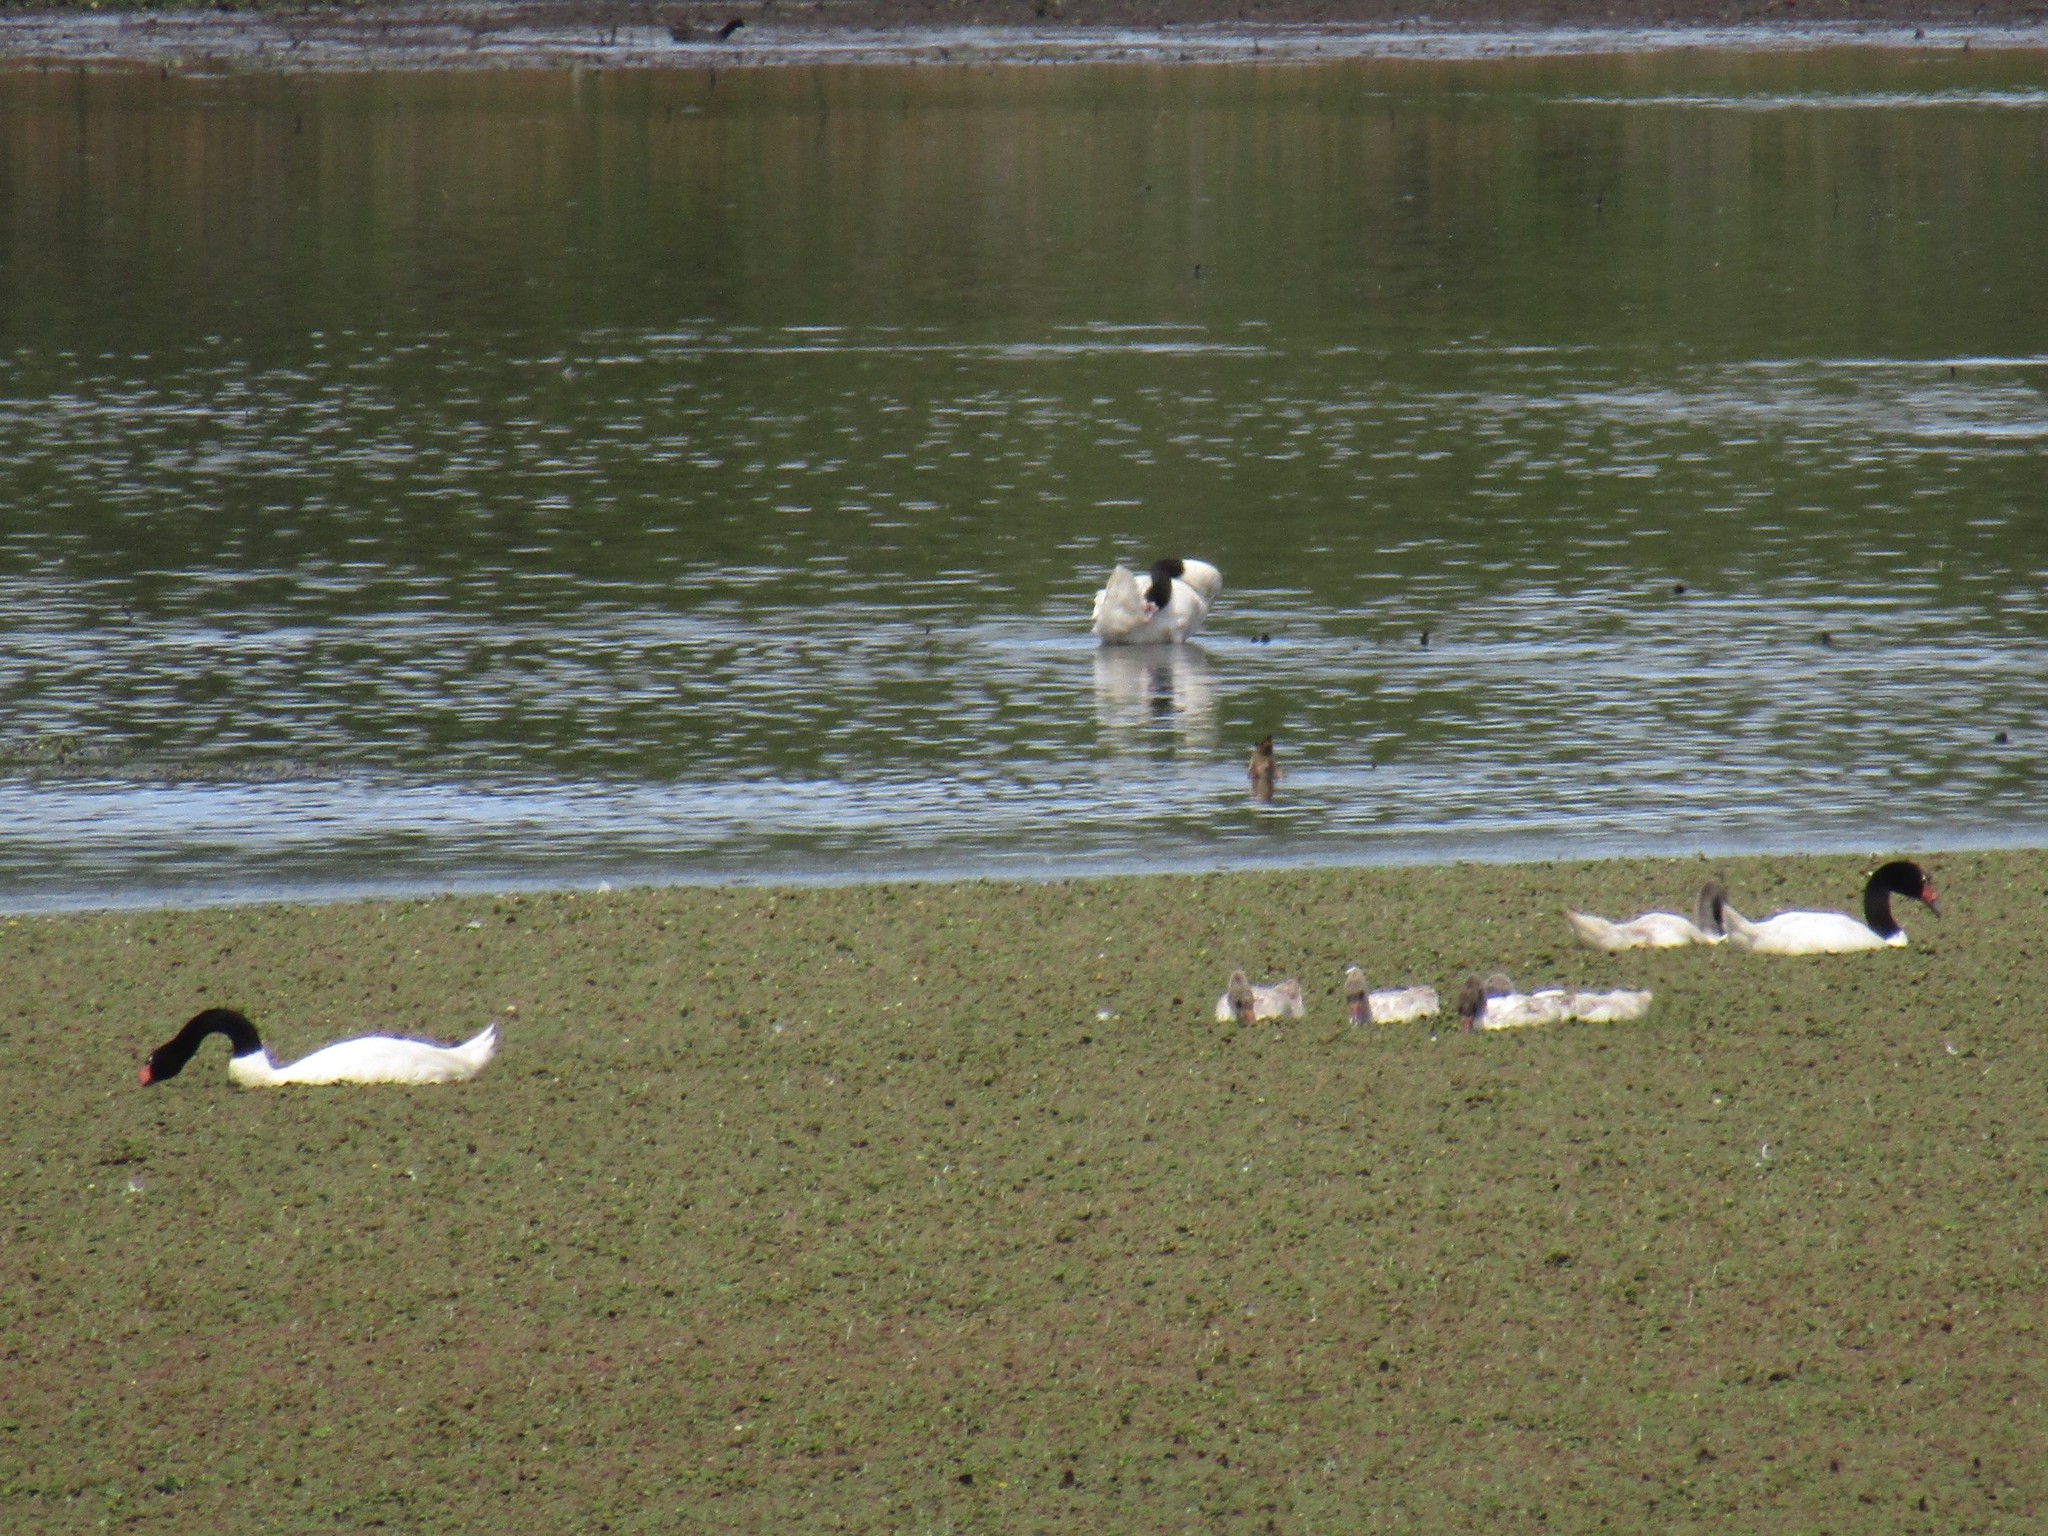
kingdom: Animalia
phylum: Chordata
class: Aves
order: Anseriformes
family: Anatidae
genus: Cygnus
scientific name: Cygnus melancoryphus
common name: Black-necked swan
